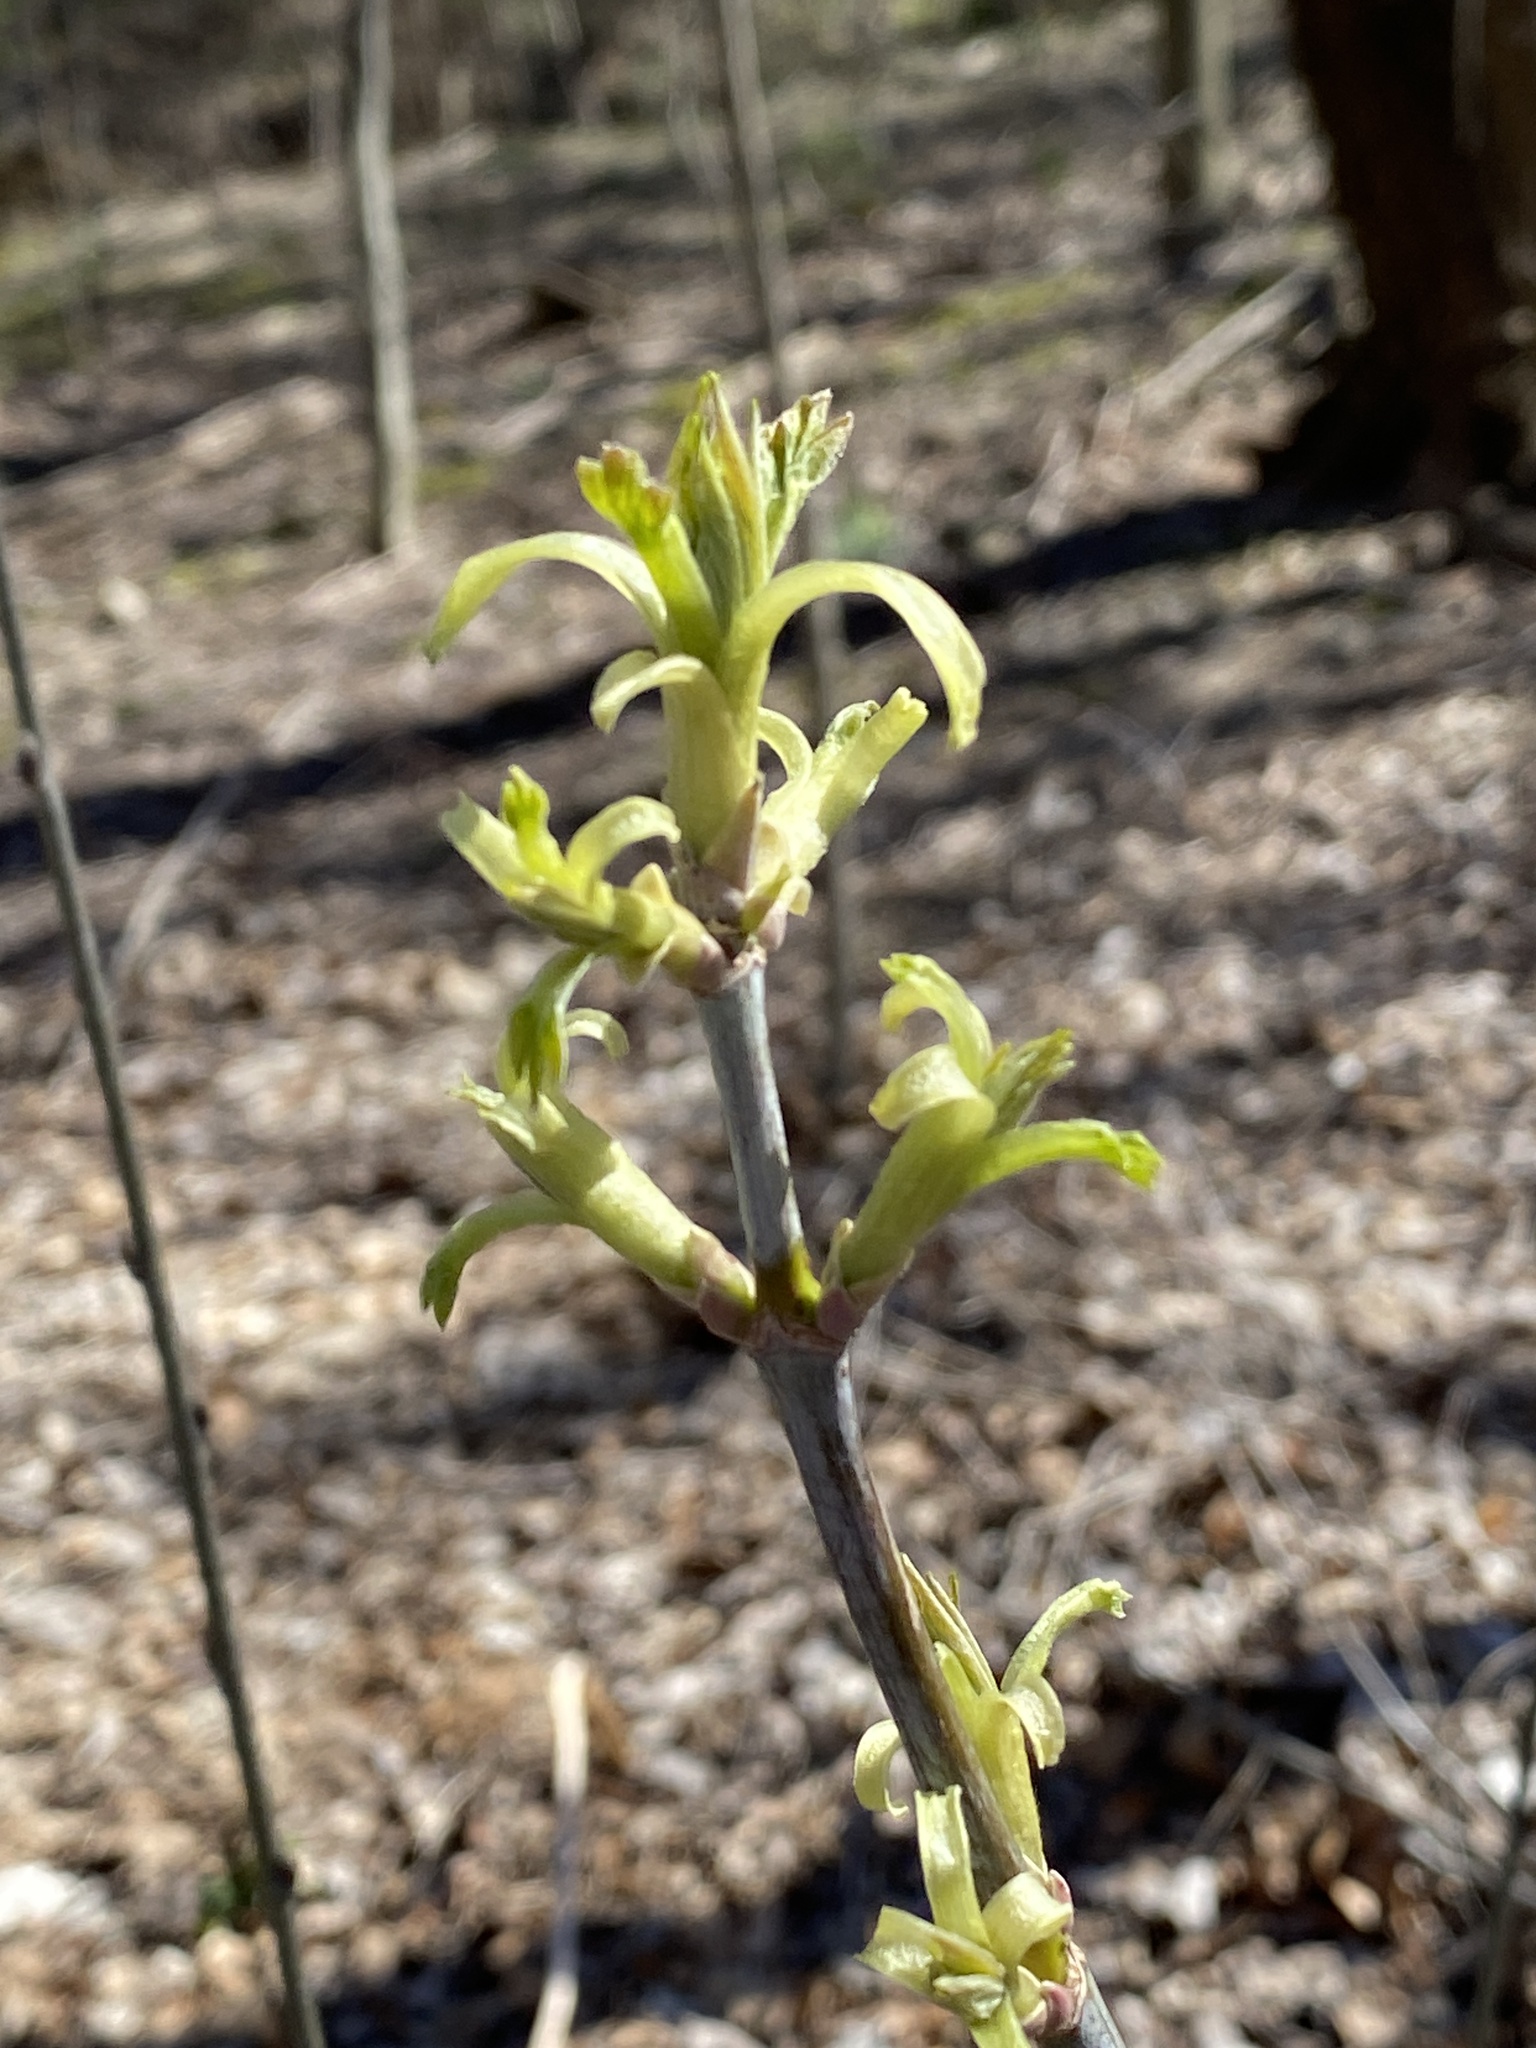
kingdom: Plantae
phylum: Tracheophyta
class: Magnoliopsida
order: Sapindales
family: Sapindaceae
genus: Acer
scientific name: Acer negundo
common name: Ashleaf maple
